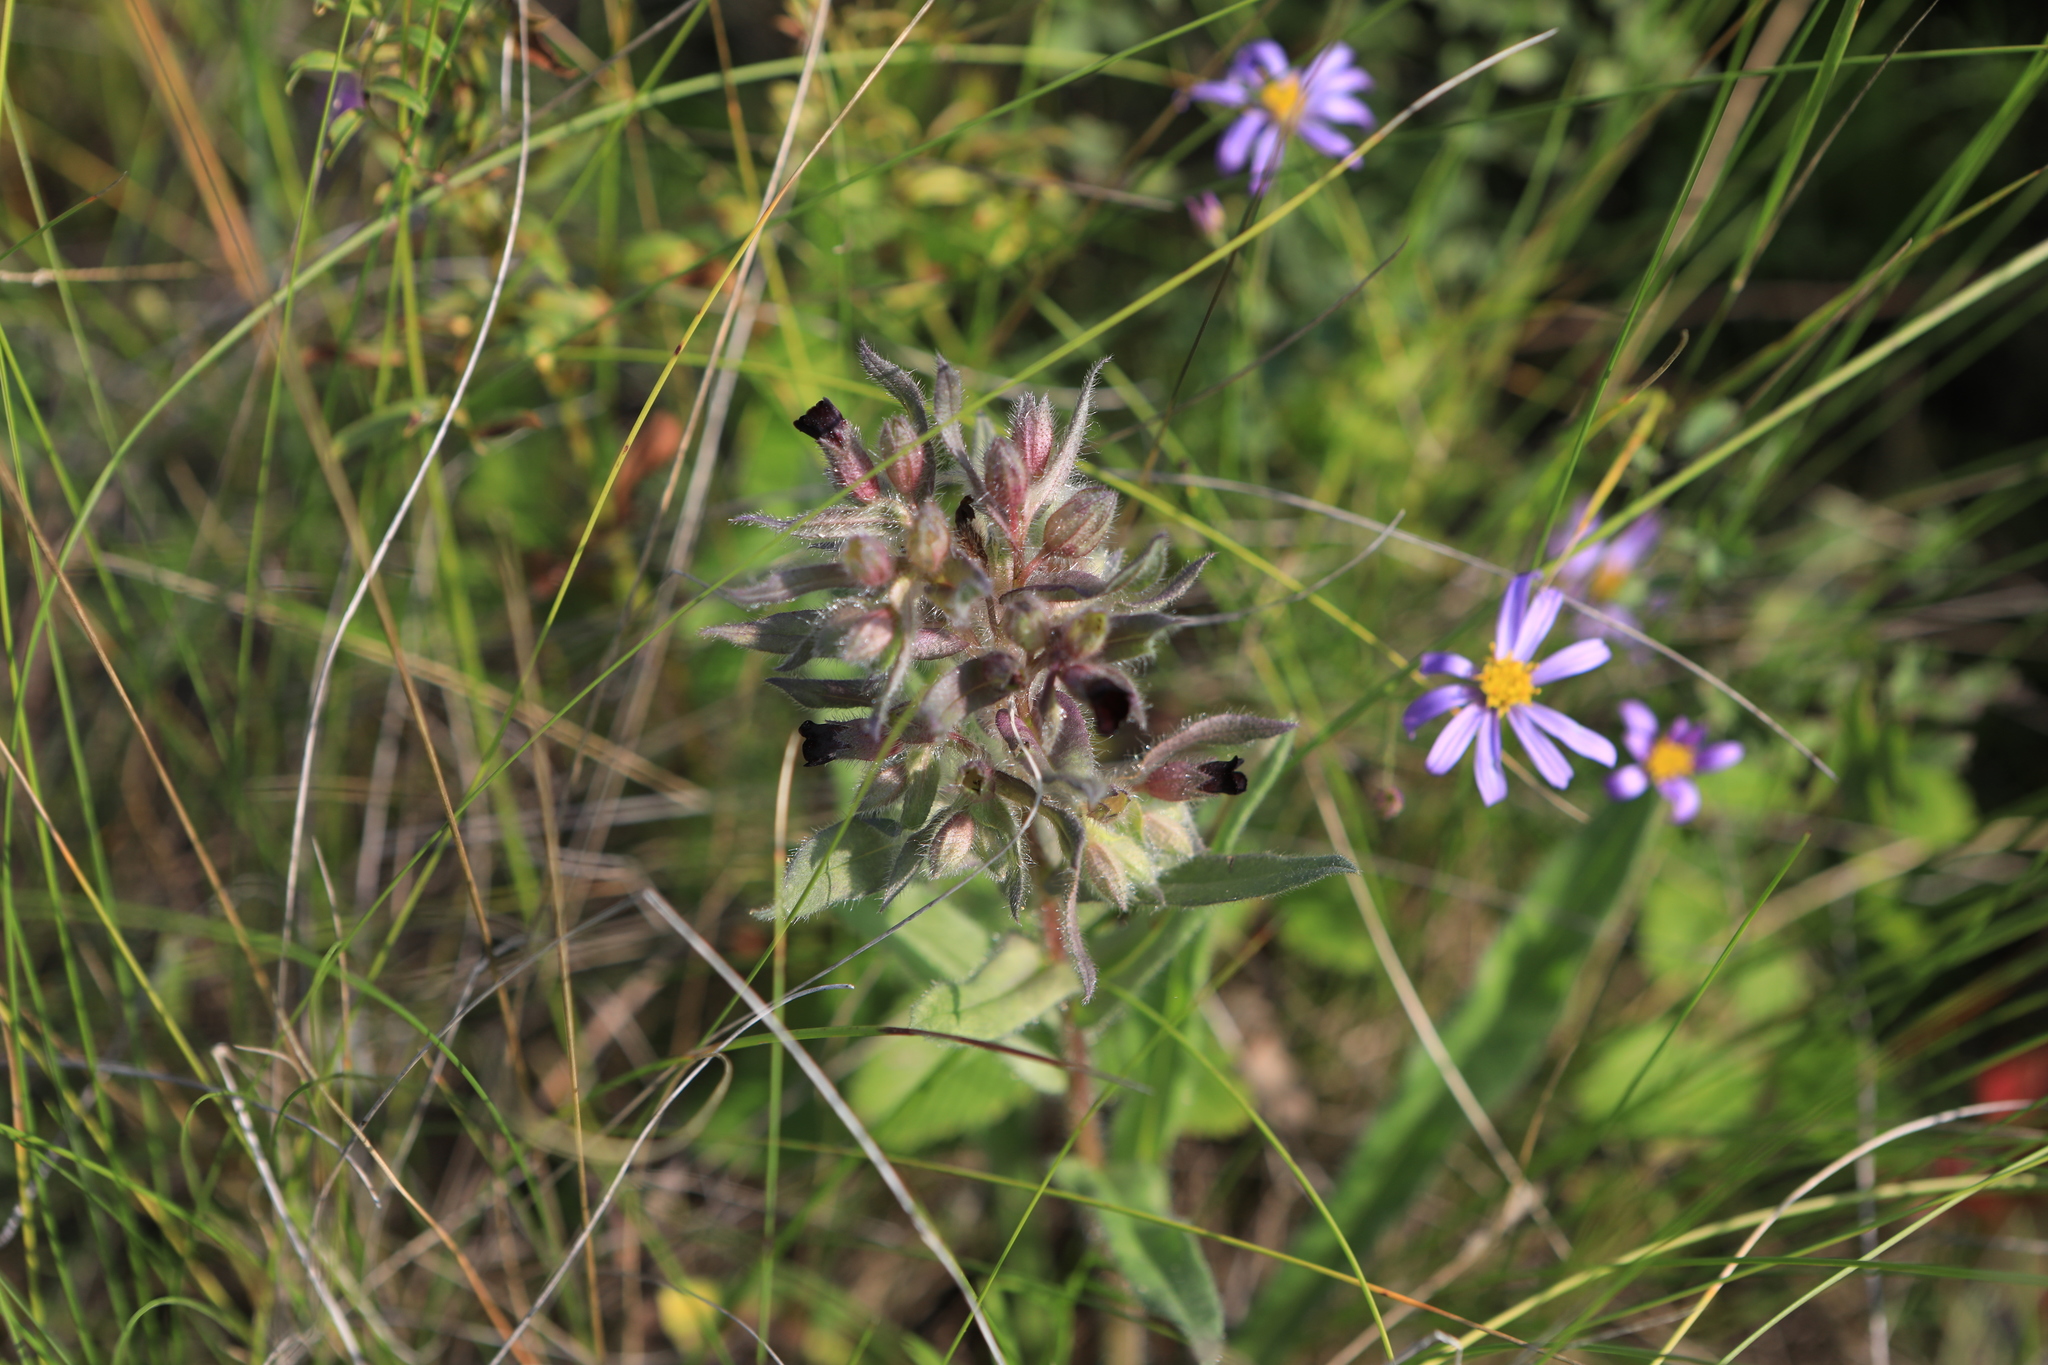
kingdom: Plantae
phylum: Tracheophyta
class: Magnoliopsida
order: Boraginales
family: Boraginaceae
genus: Nonea
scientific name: Nonea pulla
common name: Brown nonea
